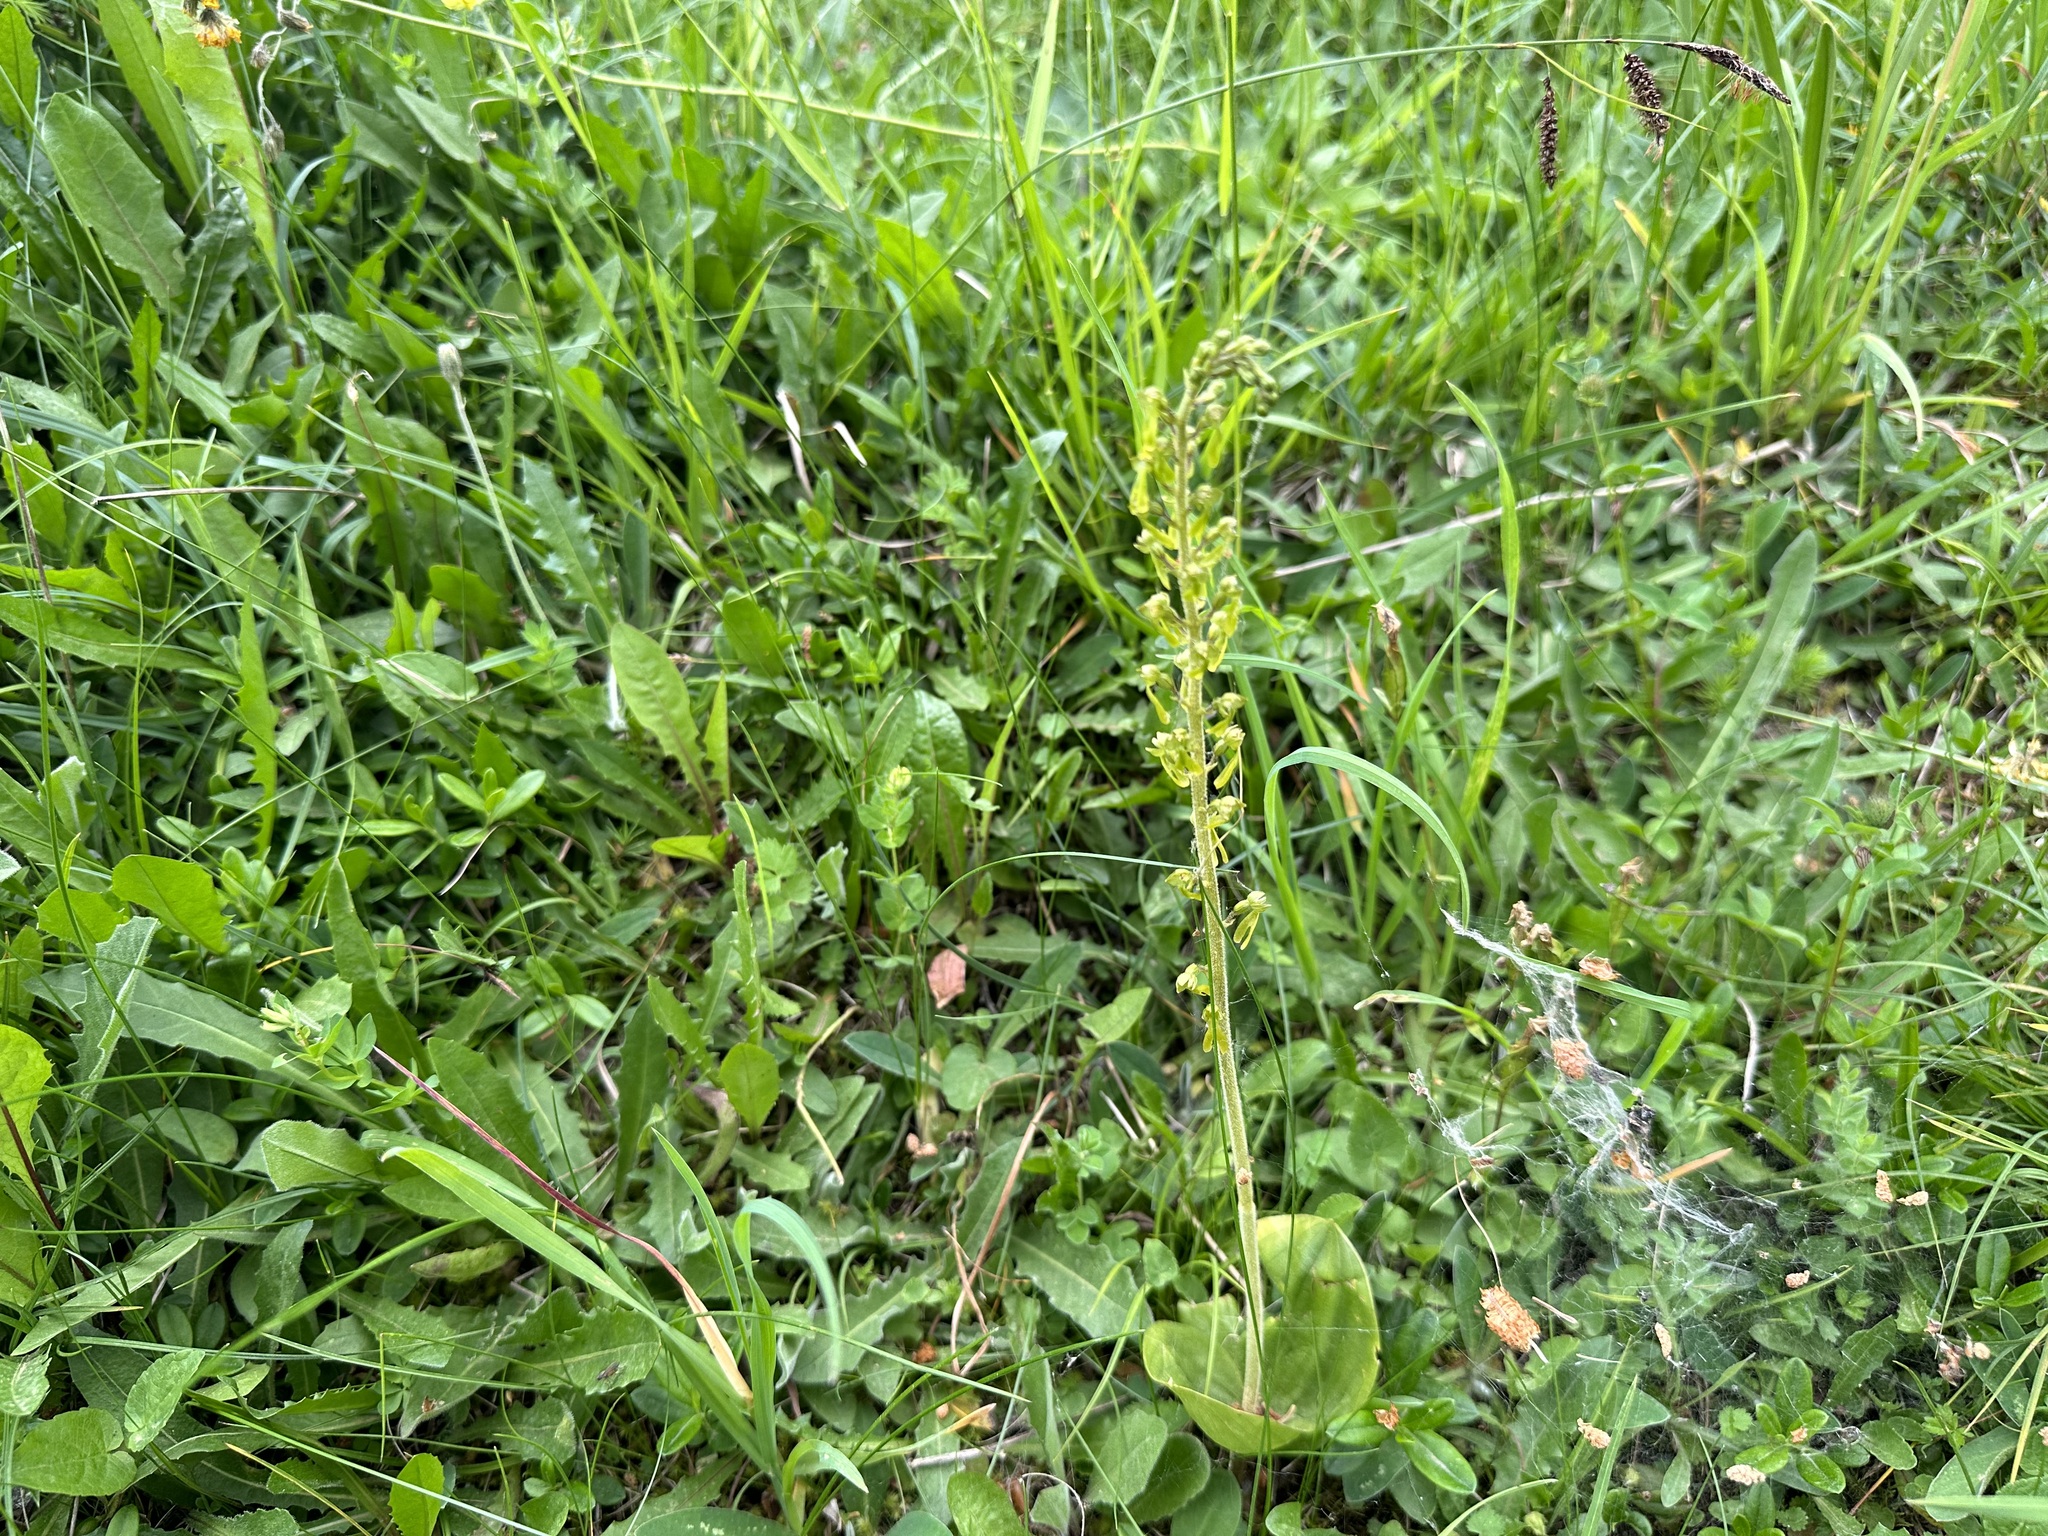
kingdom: Plantae
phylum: Tracheophyta
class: Liliopsida
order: Asparagales
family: Orchidaceae
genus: Neottia
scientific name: Neottia ovata
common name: Common twayblade
